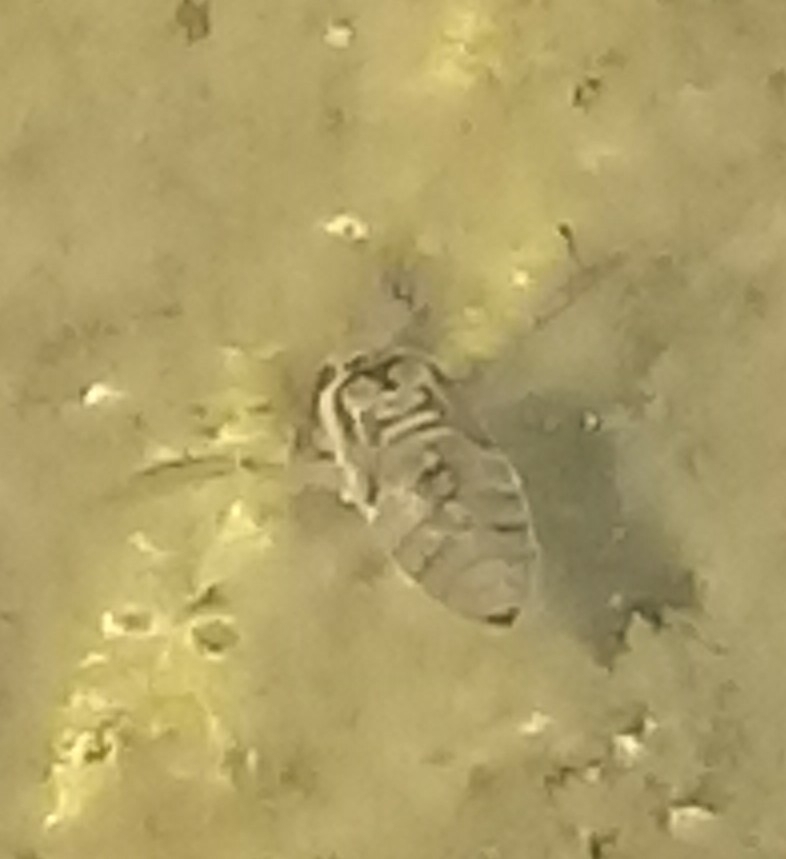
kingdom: Animalia
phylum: Arthropoda
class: Insecta
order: Hemiptera
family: Corixidae
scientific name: Corixidae
